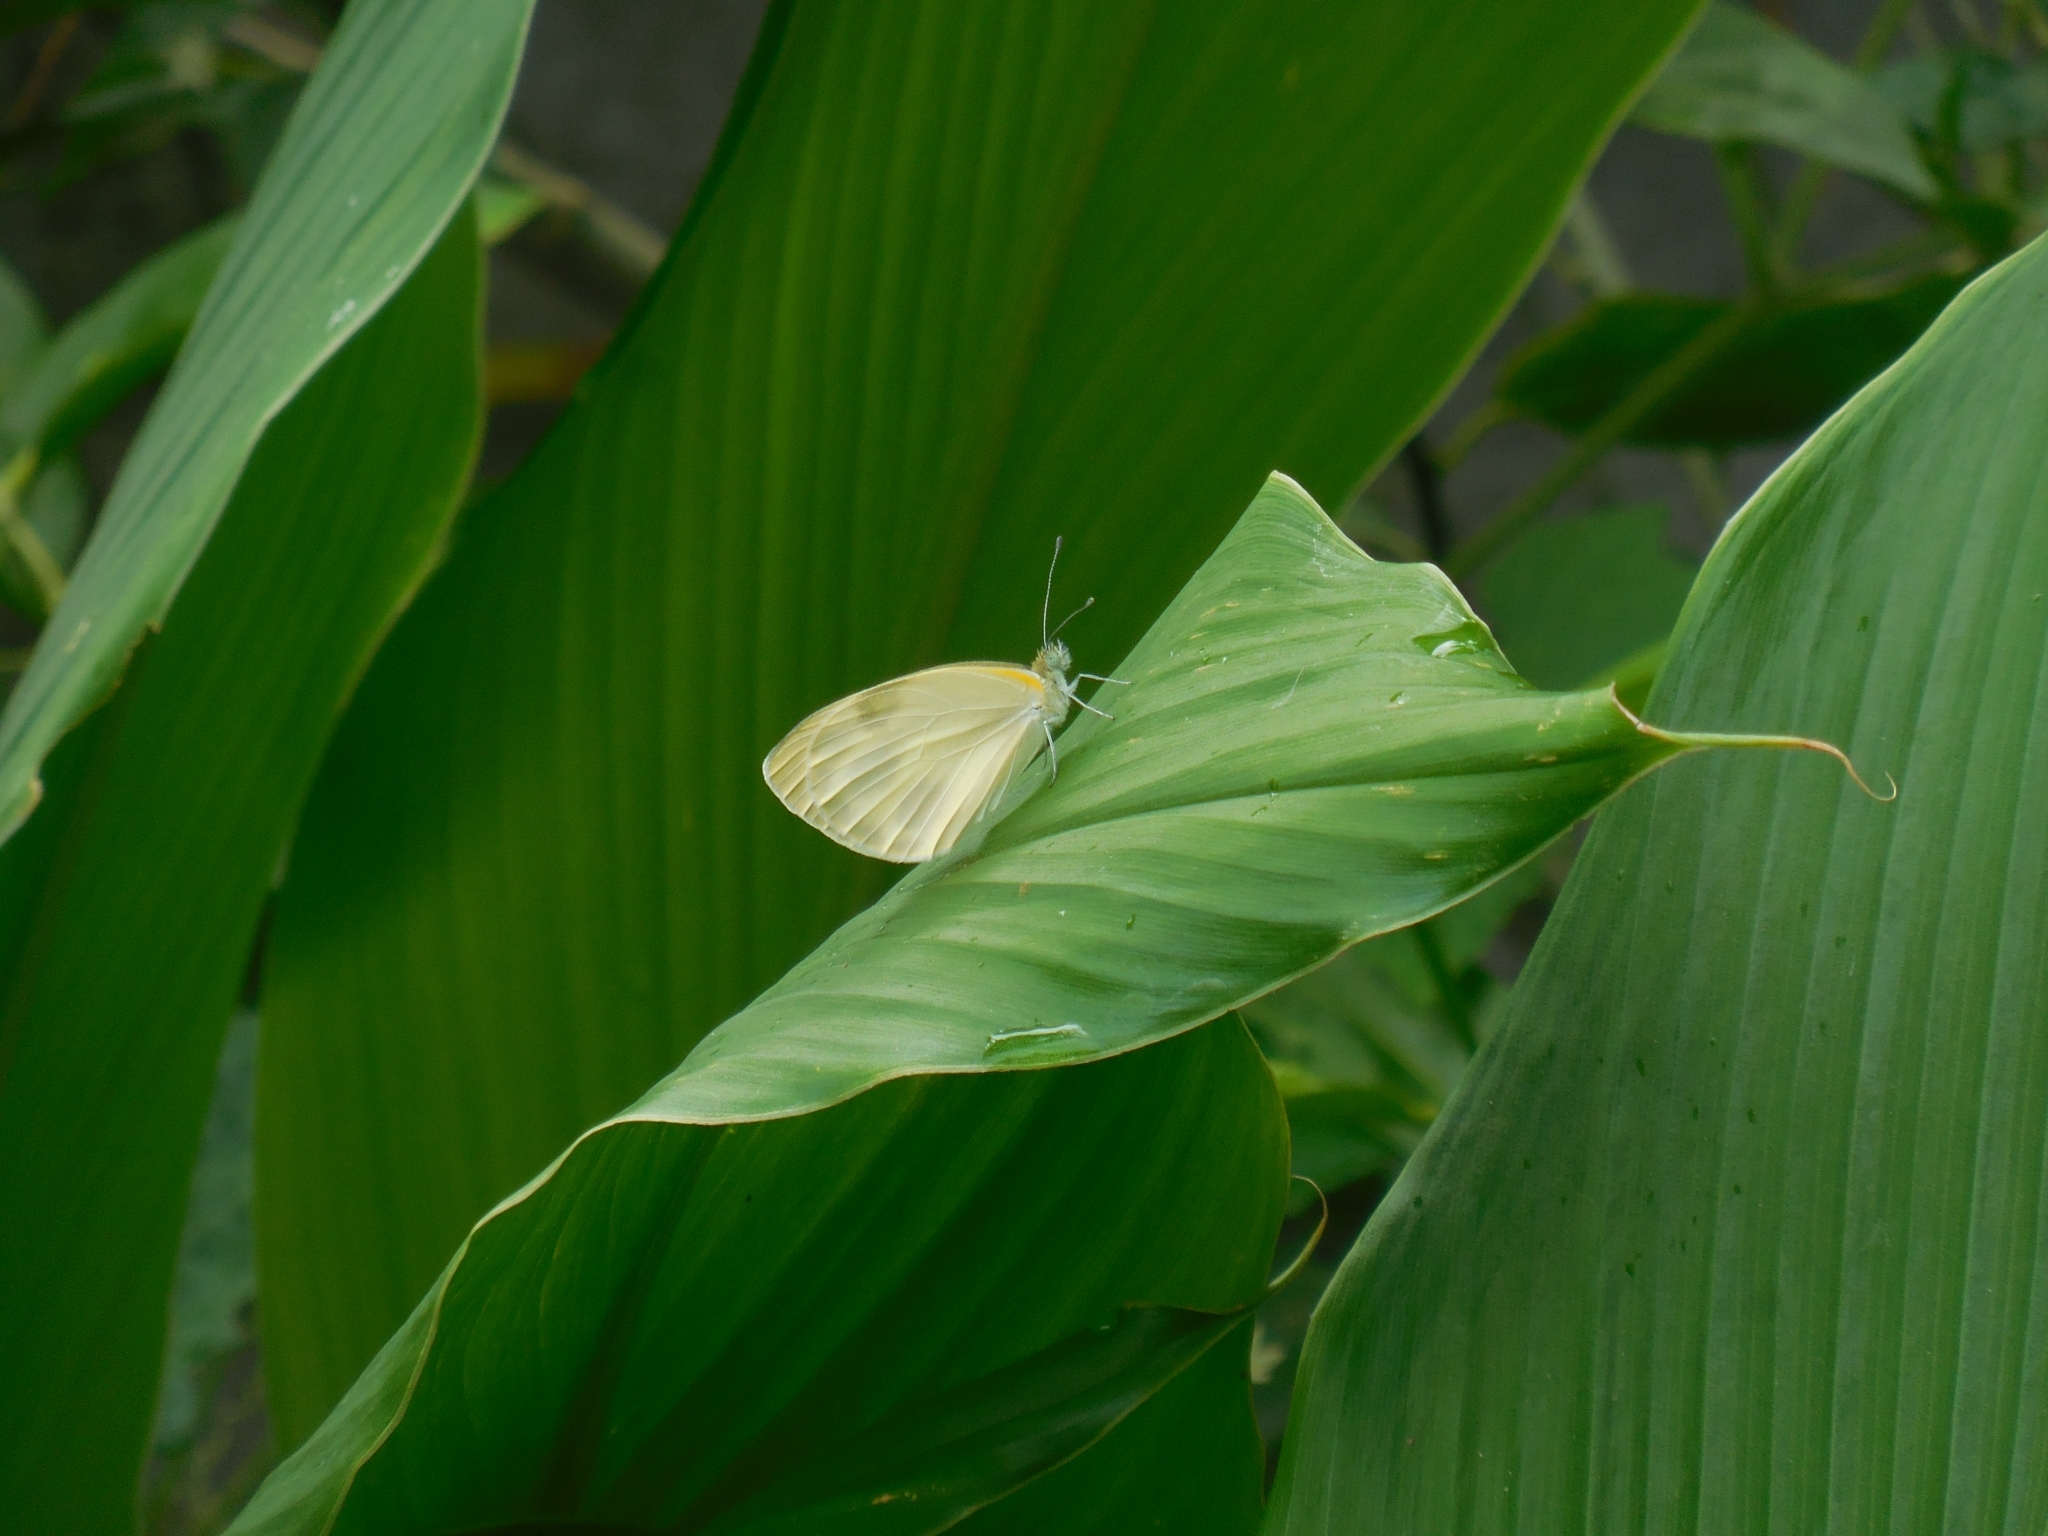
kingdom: Animalia
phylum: Arthropoda
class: Insecta
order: Lepidoptera
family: Pieridae
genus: Appias
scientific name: Appias albina
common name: Common albatross
